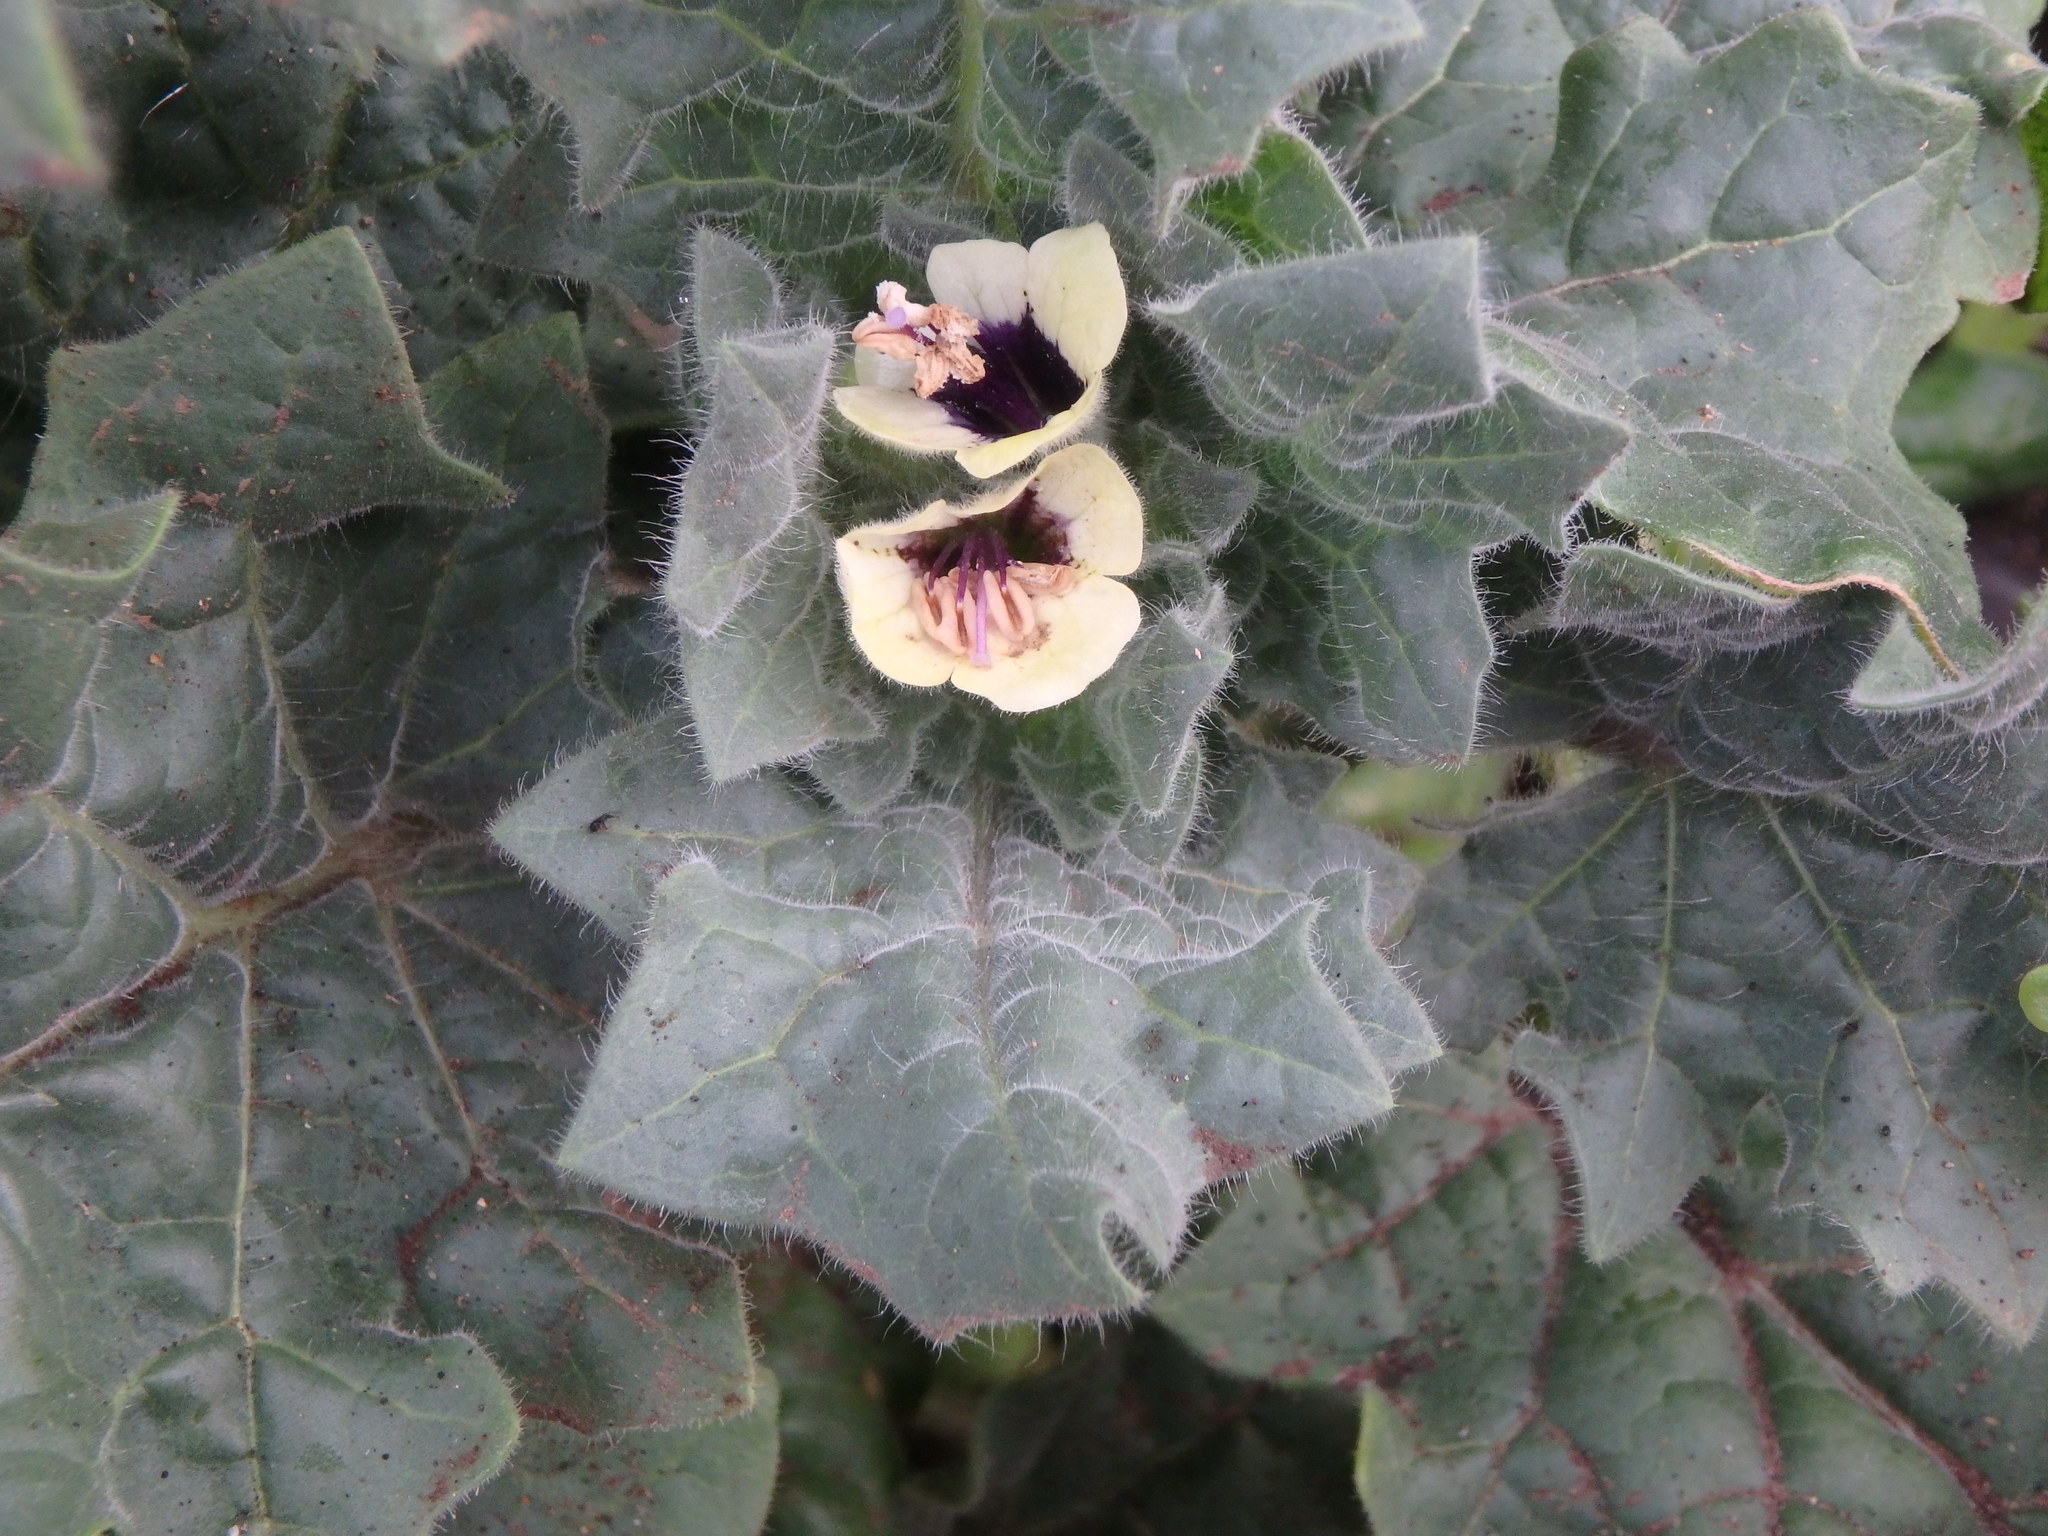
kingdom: Plantae
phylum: Tracheophyta
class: Magnoliopsida
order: Solanales
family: Solanaceae
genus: Hyoscyamus
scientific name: Hyoscyamus albus
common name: White henbane
